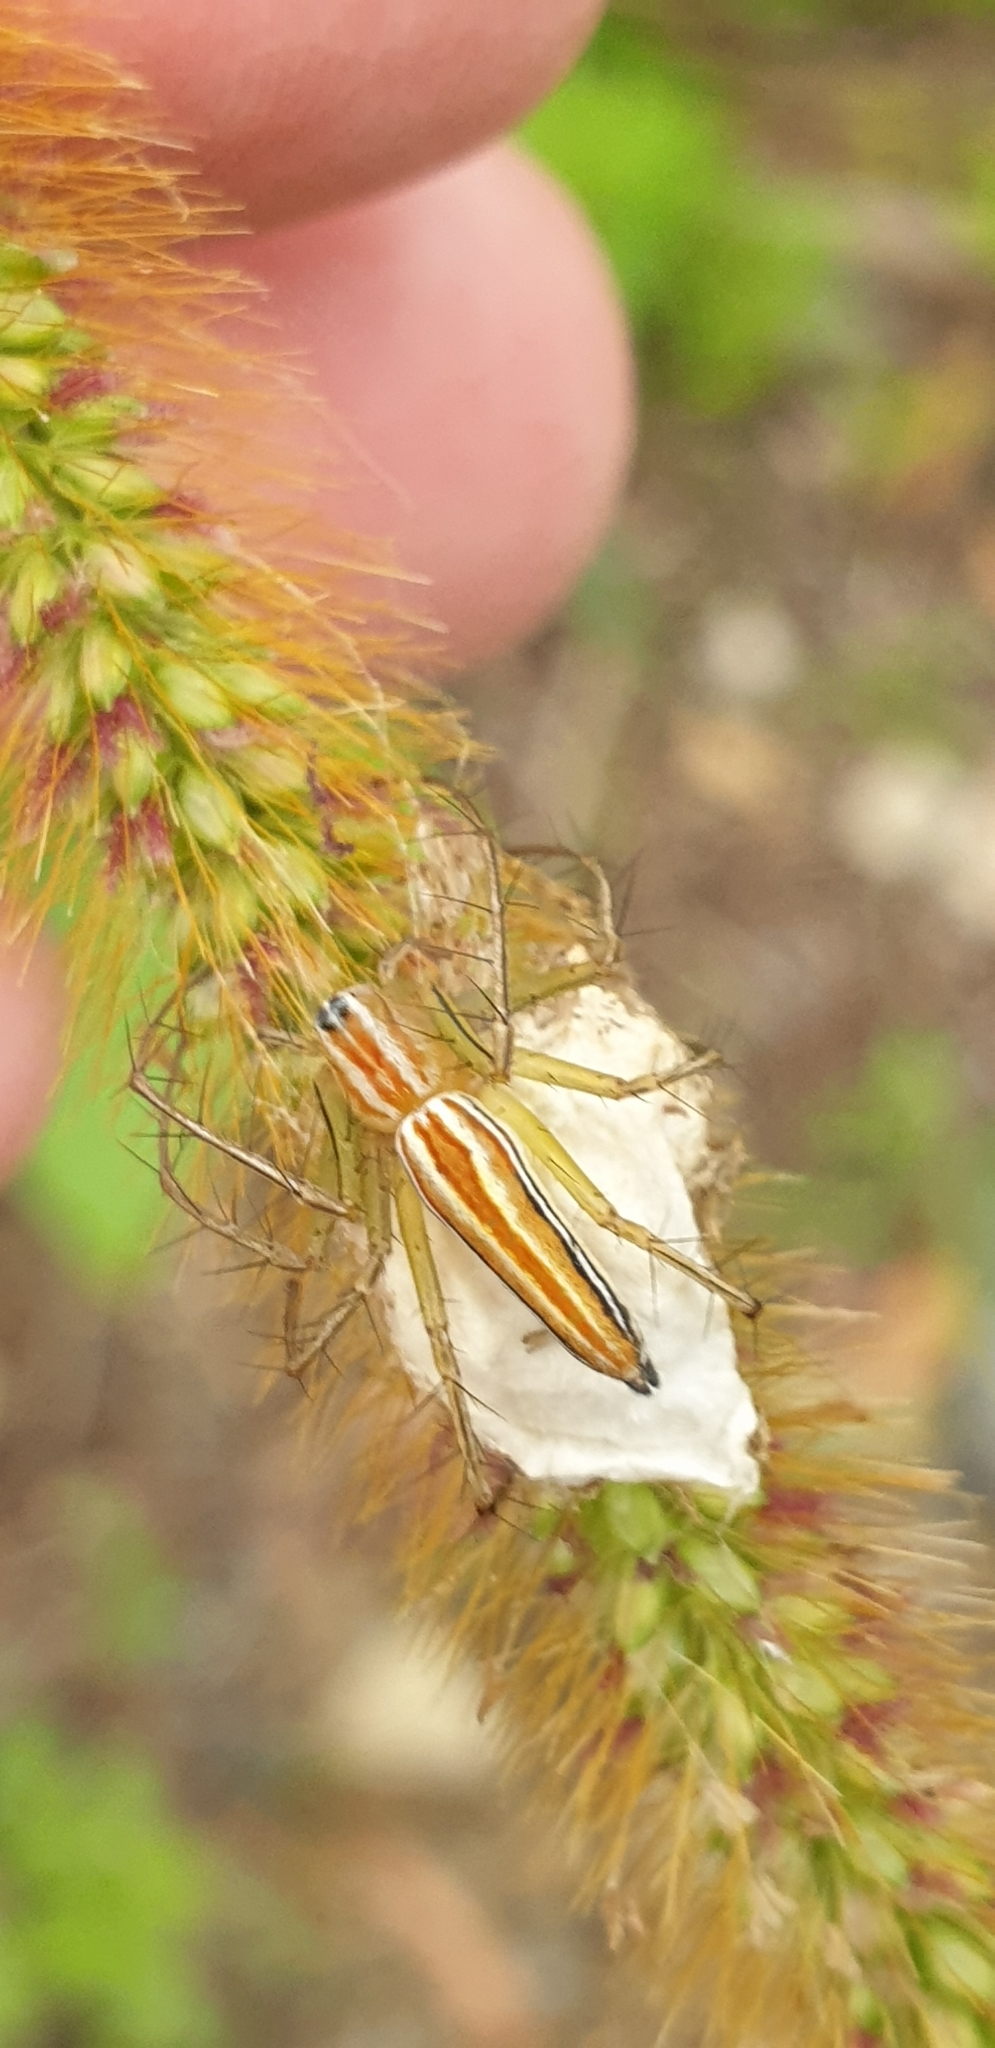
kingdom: Animalia
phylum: Arthropoda
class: Arachnida
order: Araneae
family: Oxyopidae
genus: Oxyopes
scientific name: Oxyopes macilentus
